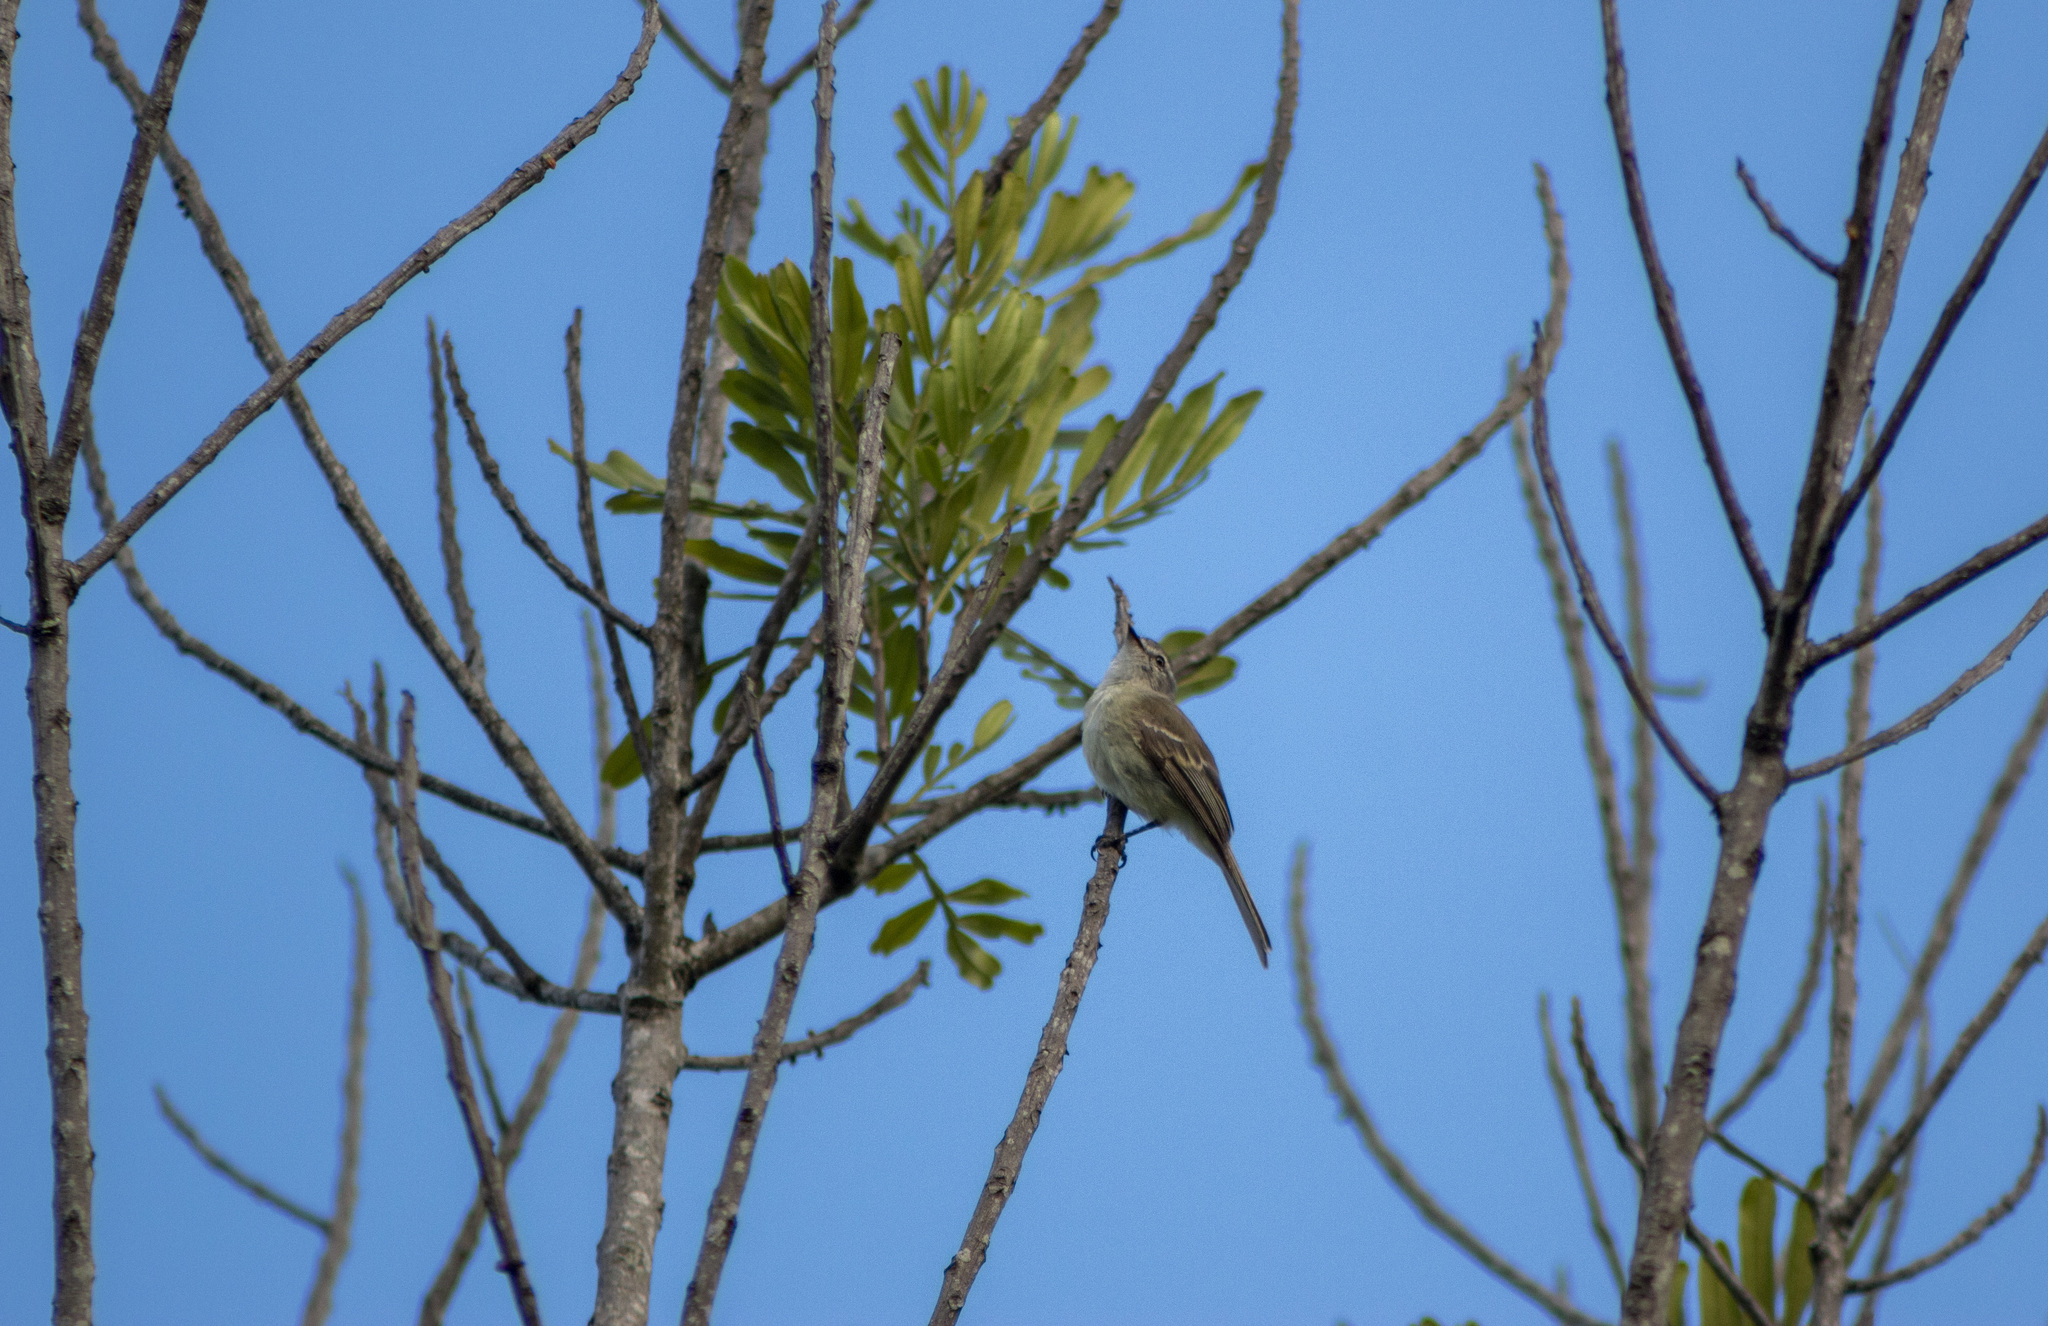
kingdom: Animalia
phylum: Chordata
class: Aves
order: Passeriformes
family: Tyrannidae
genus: Phyllomyias
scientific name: Phyllomyias fasciatus
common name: Planalto tyrannulet
